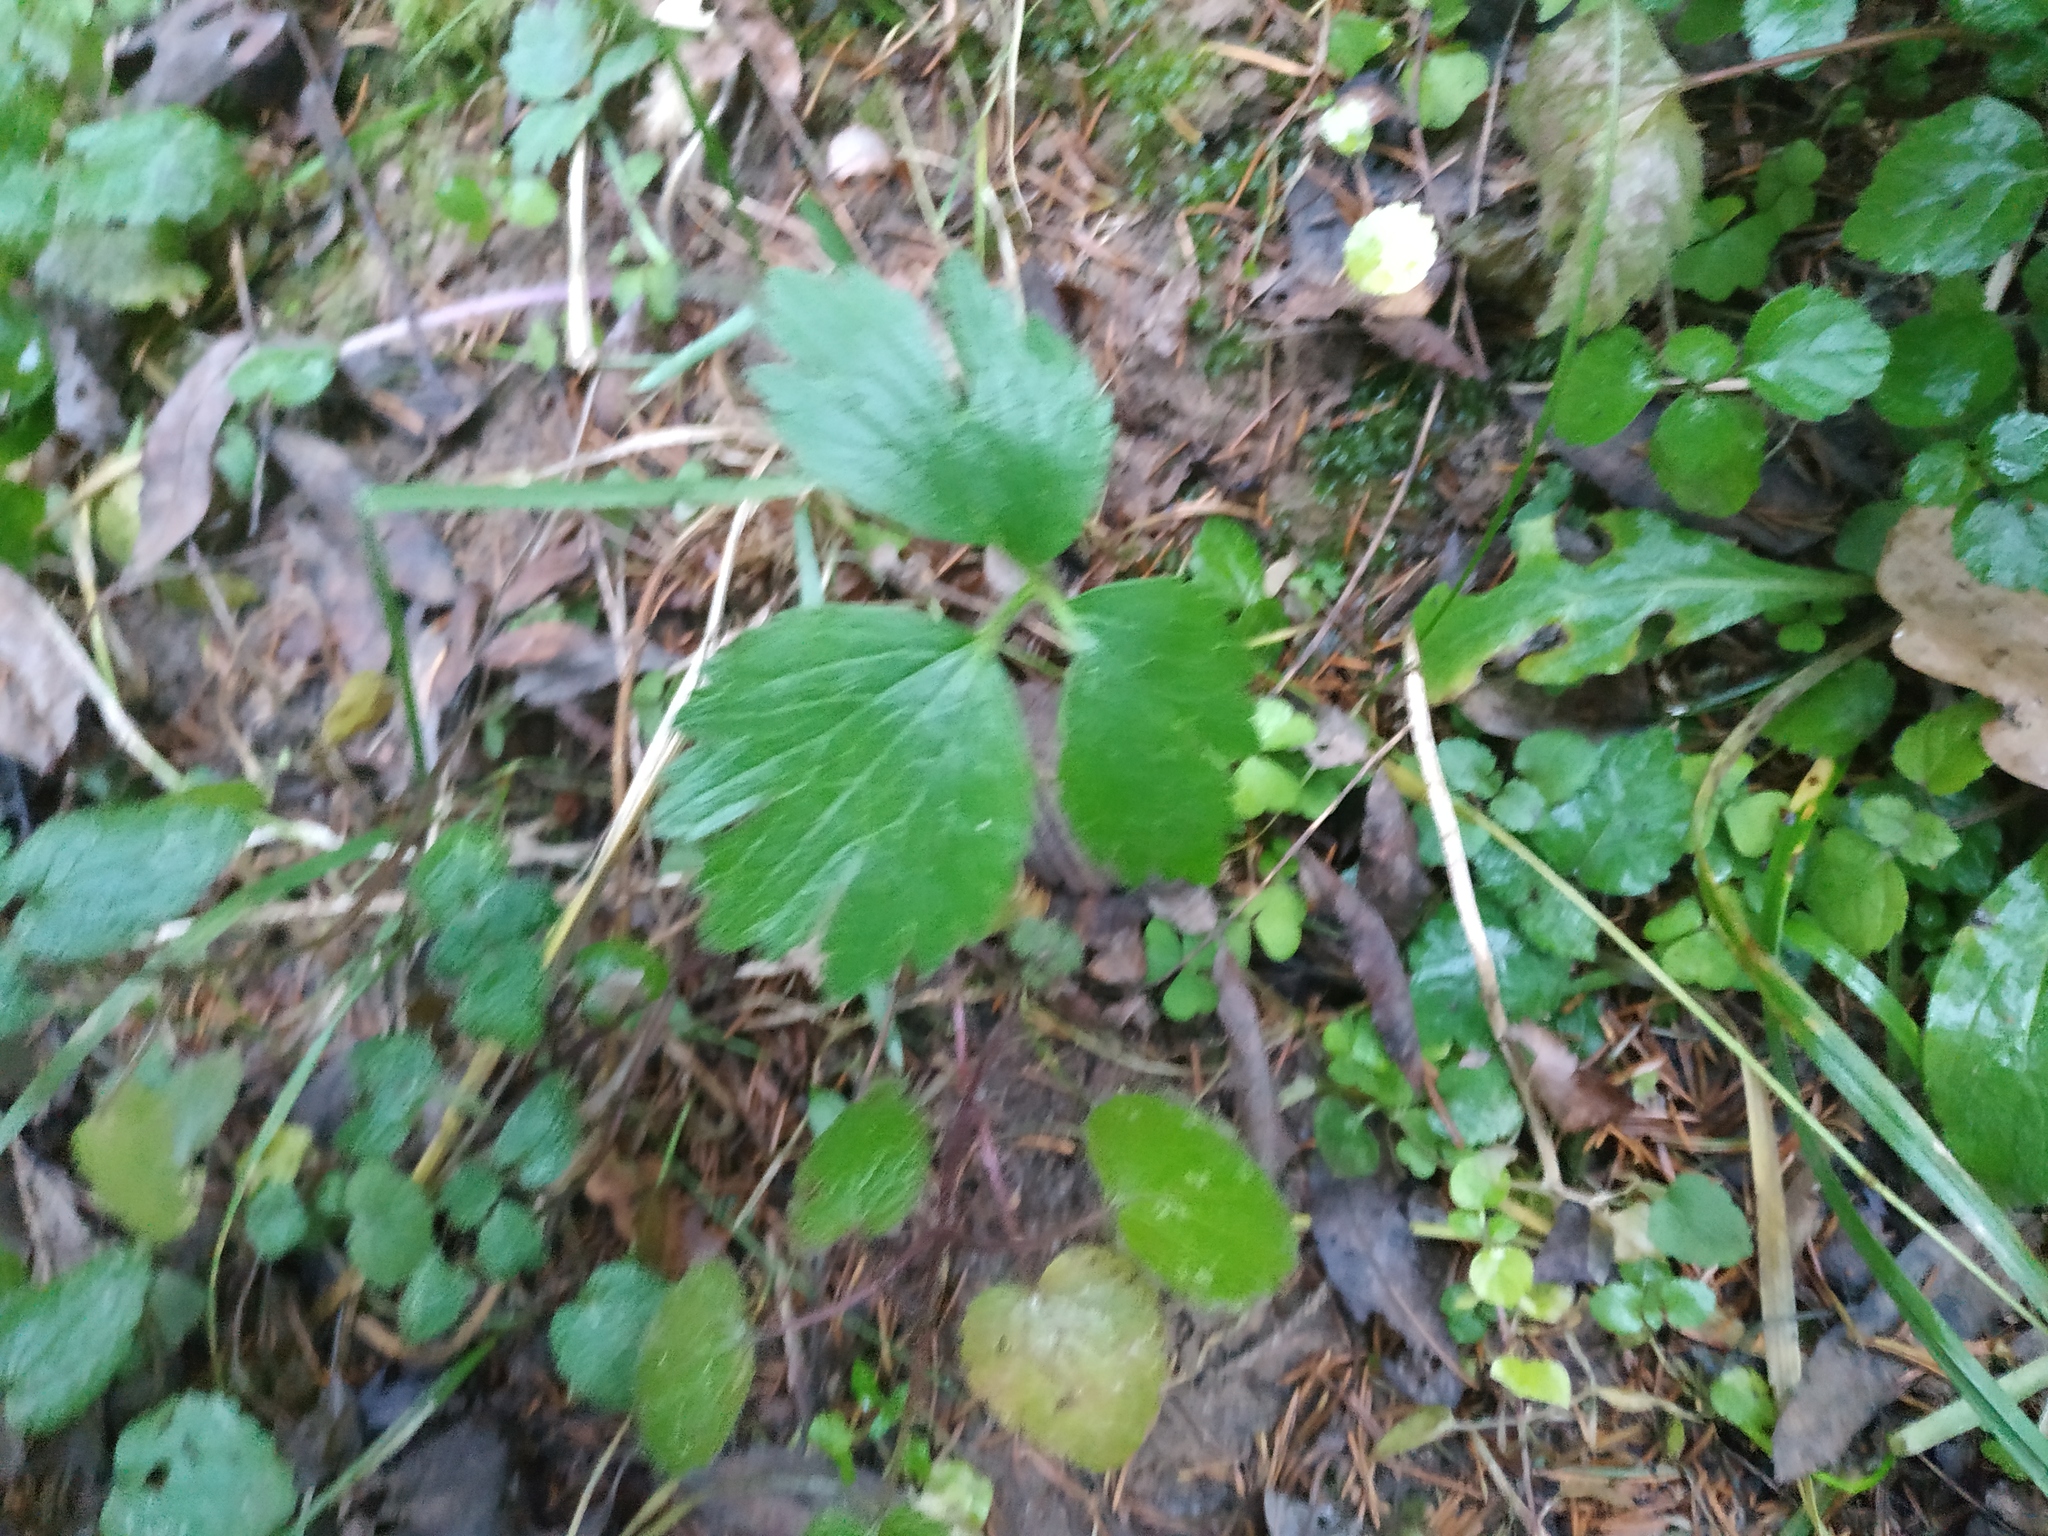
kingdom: Plantae
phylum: Tracheophyta
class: Magnoliopsida
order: Ranunculales
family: Ranunculaceae
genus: Ranunculus
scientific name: Ranunculus repens
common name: Creeping buttercup
